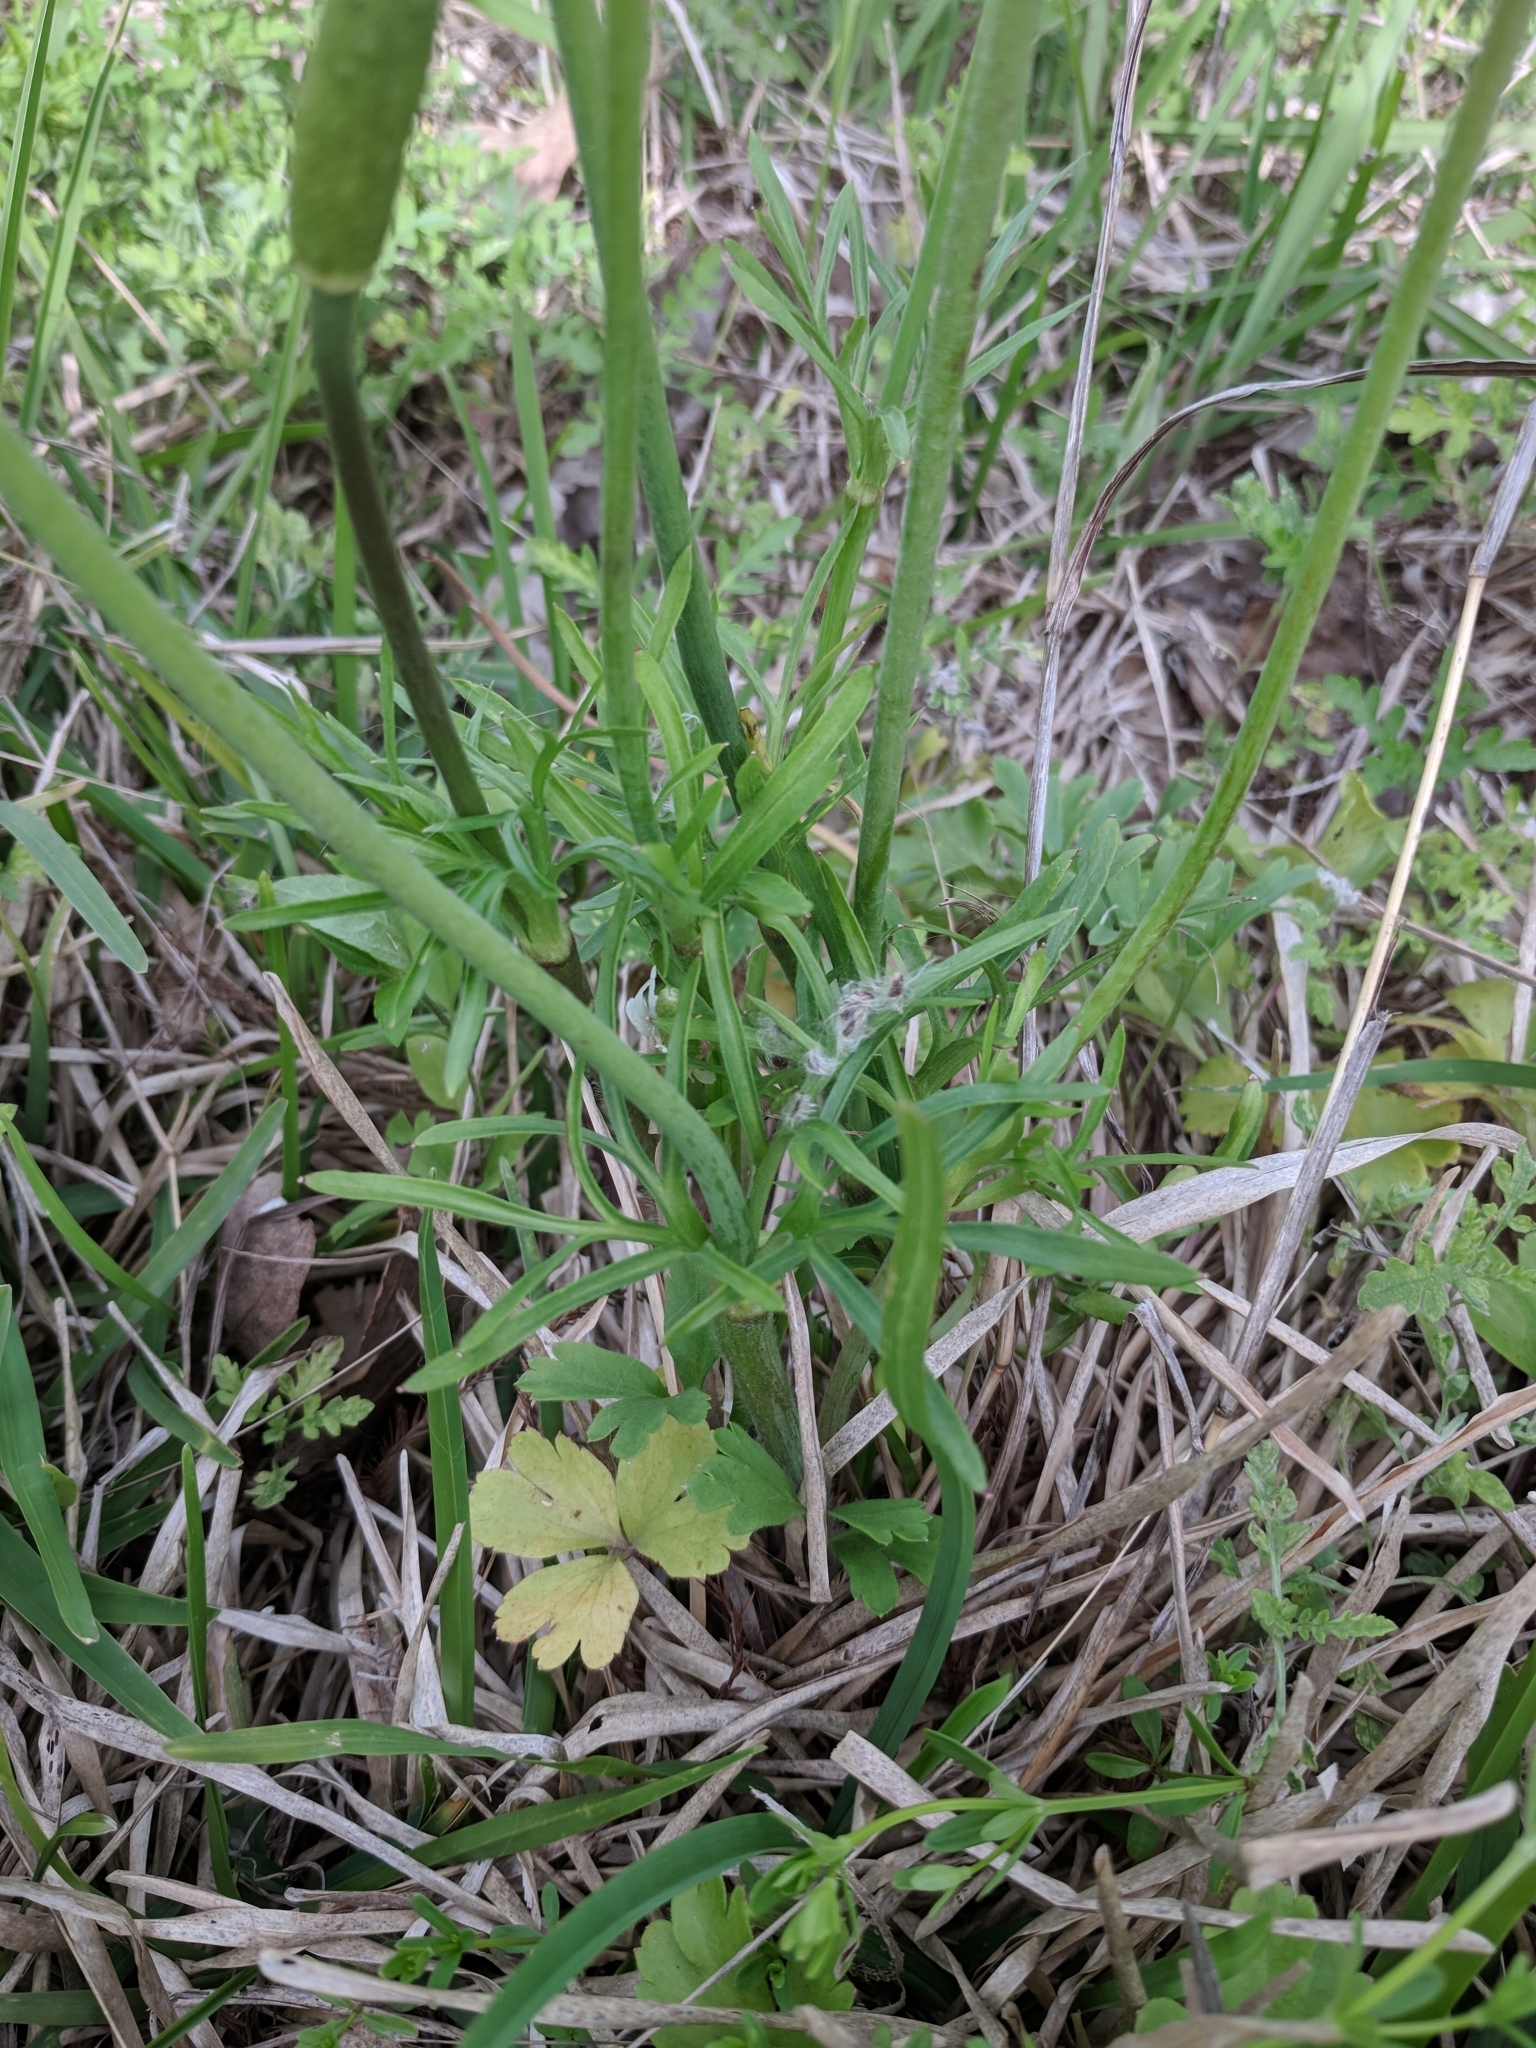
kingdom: Plantae
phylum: Tracheophyta
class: Magnoliopsida
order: Ranunculales
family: Ranunculaceae
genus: Anemone
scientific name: Anemone berlandieri
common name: Ten-petal anemone
